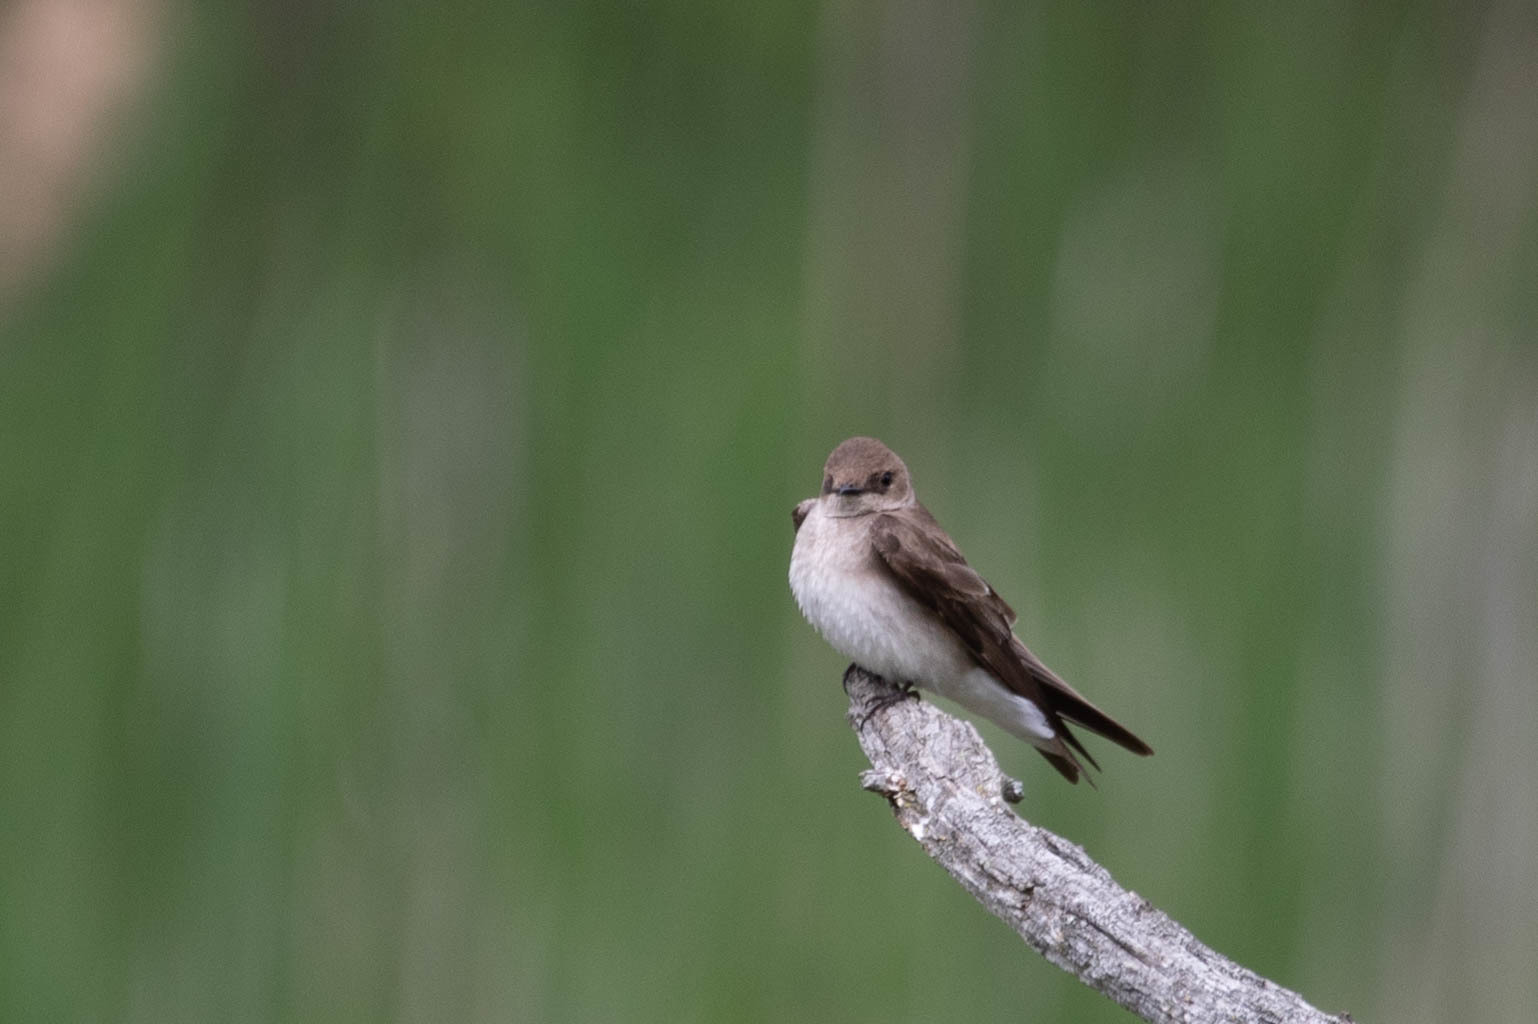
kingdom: Animalia
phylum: Chordata
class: Aves
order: Passeriformes
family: Hirundinidae
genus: Stelgidopteryx
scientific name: Stelgidopteryx serripennis
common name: Northern rough-winged swallow
